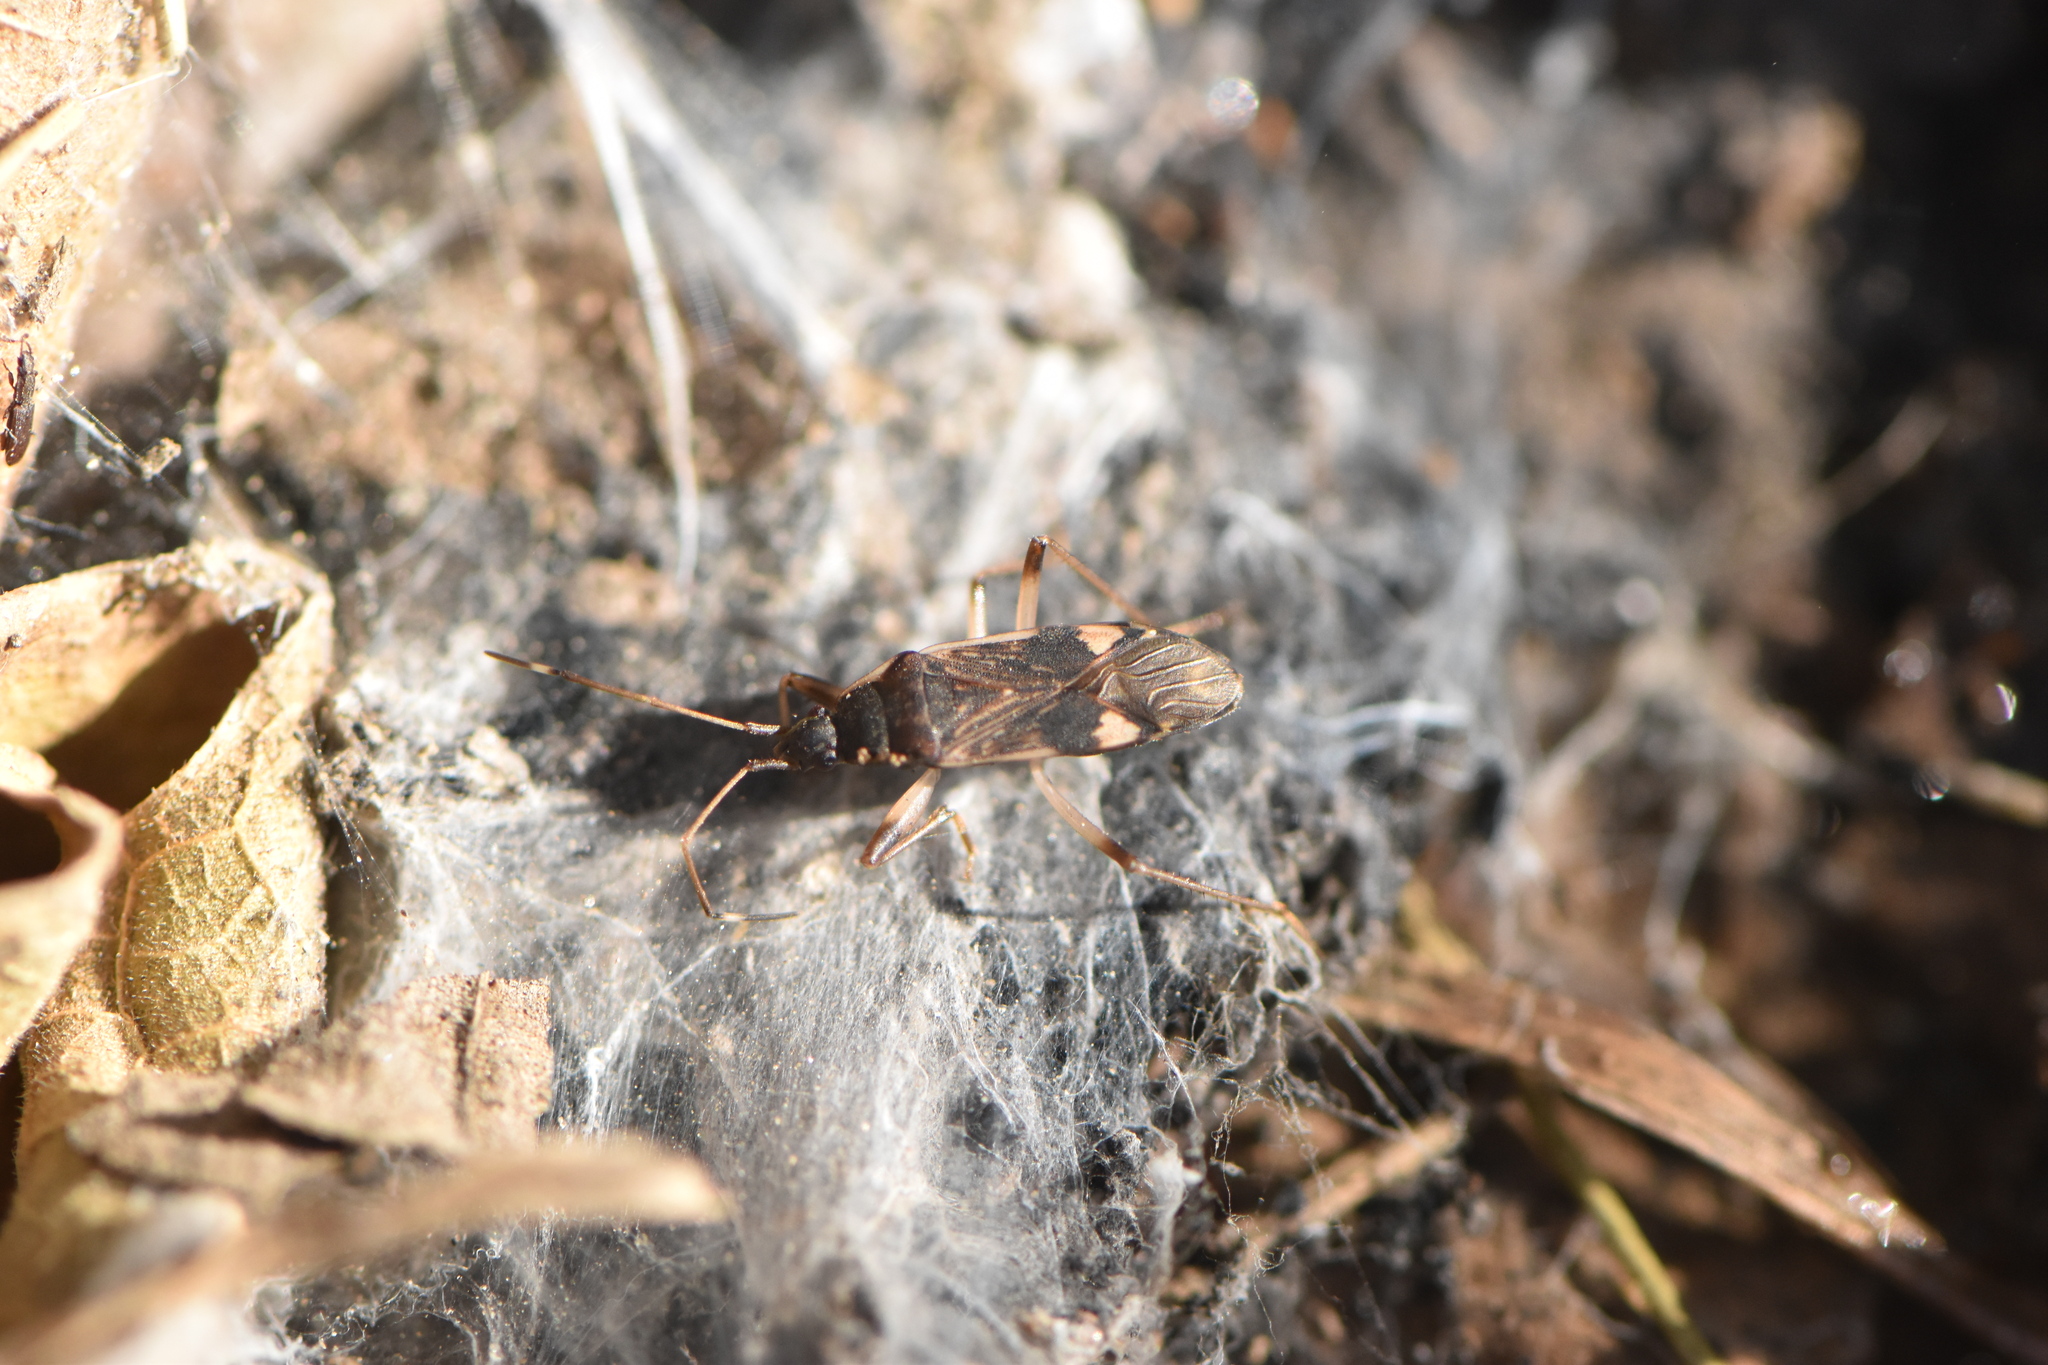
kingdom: Animalia
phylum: Arthropoda
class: Insecta
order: Hemiptera
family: Rhyparochromidae
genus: Dieuches
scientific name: Dieuches armatipes
